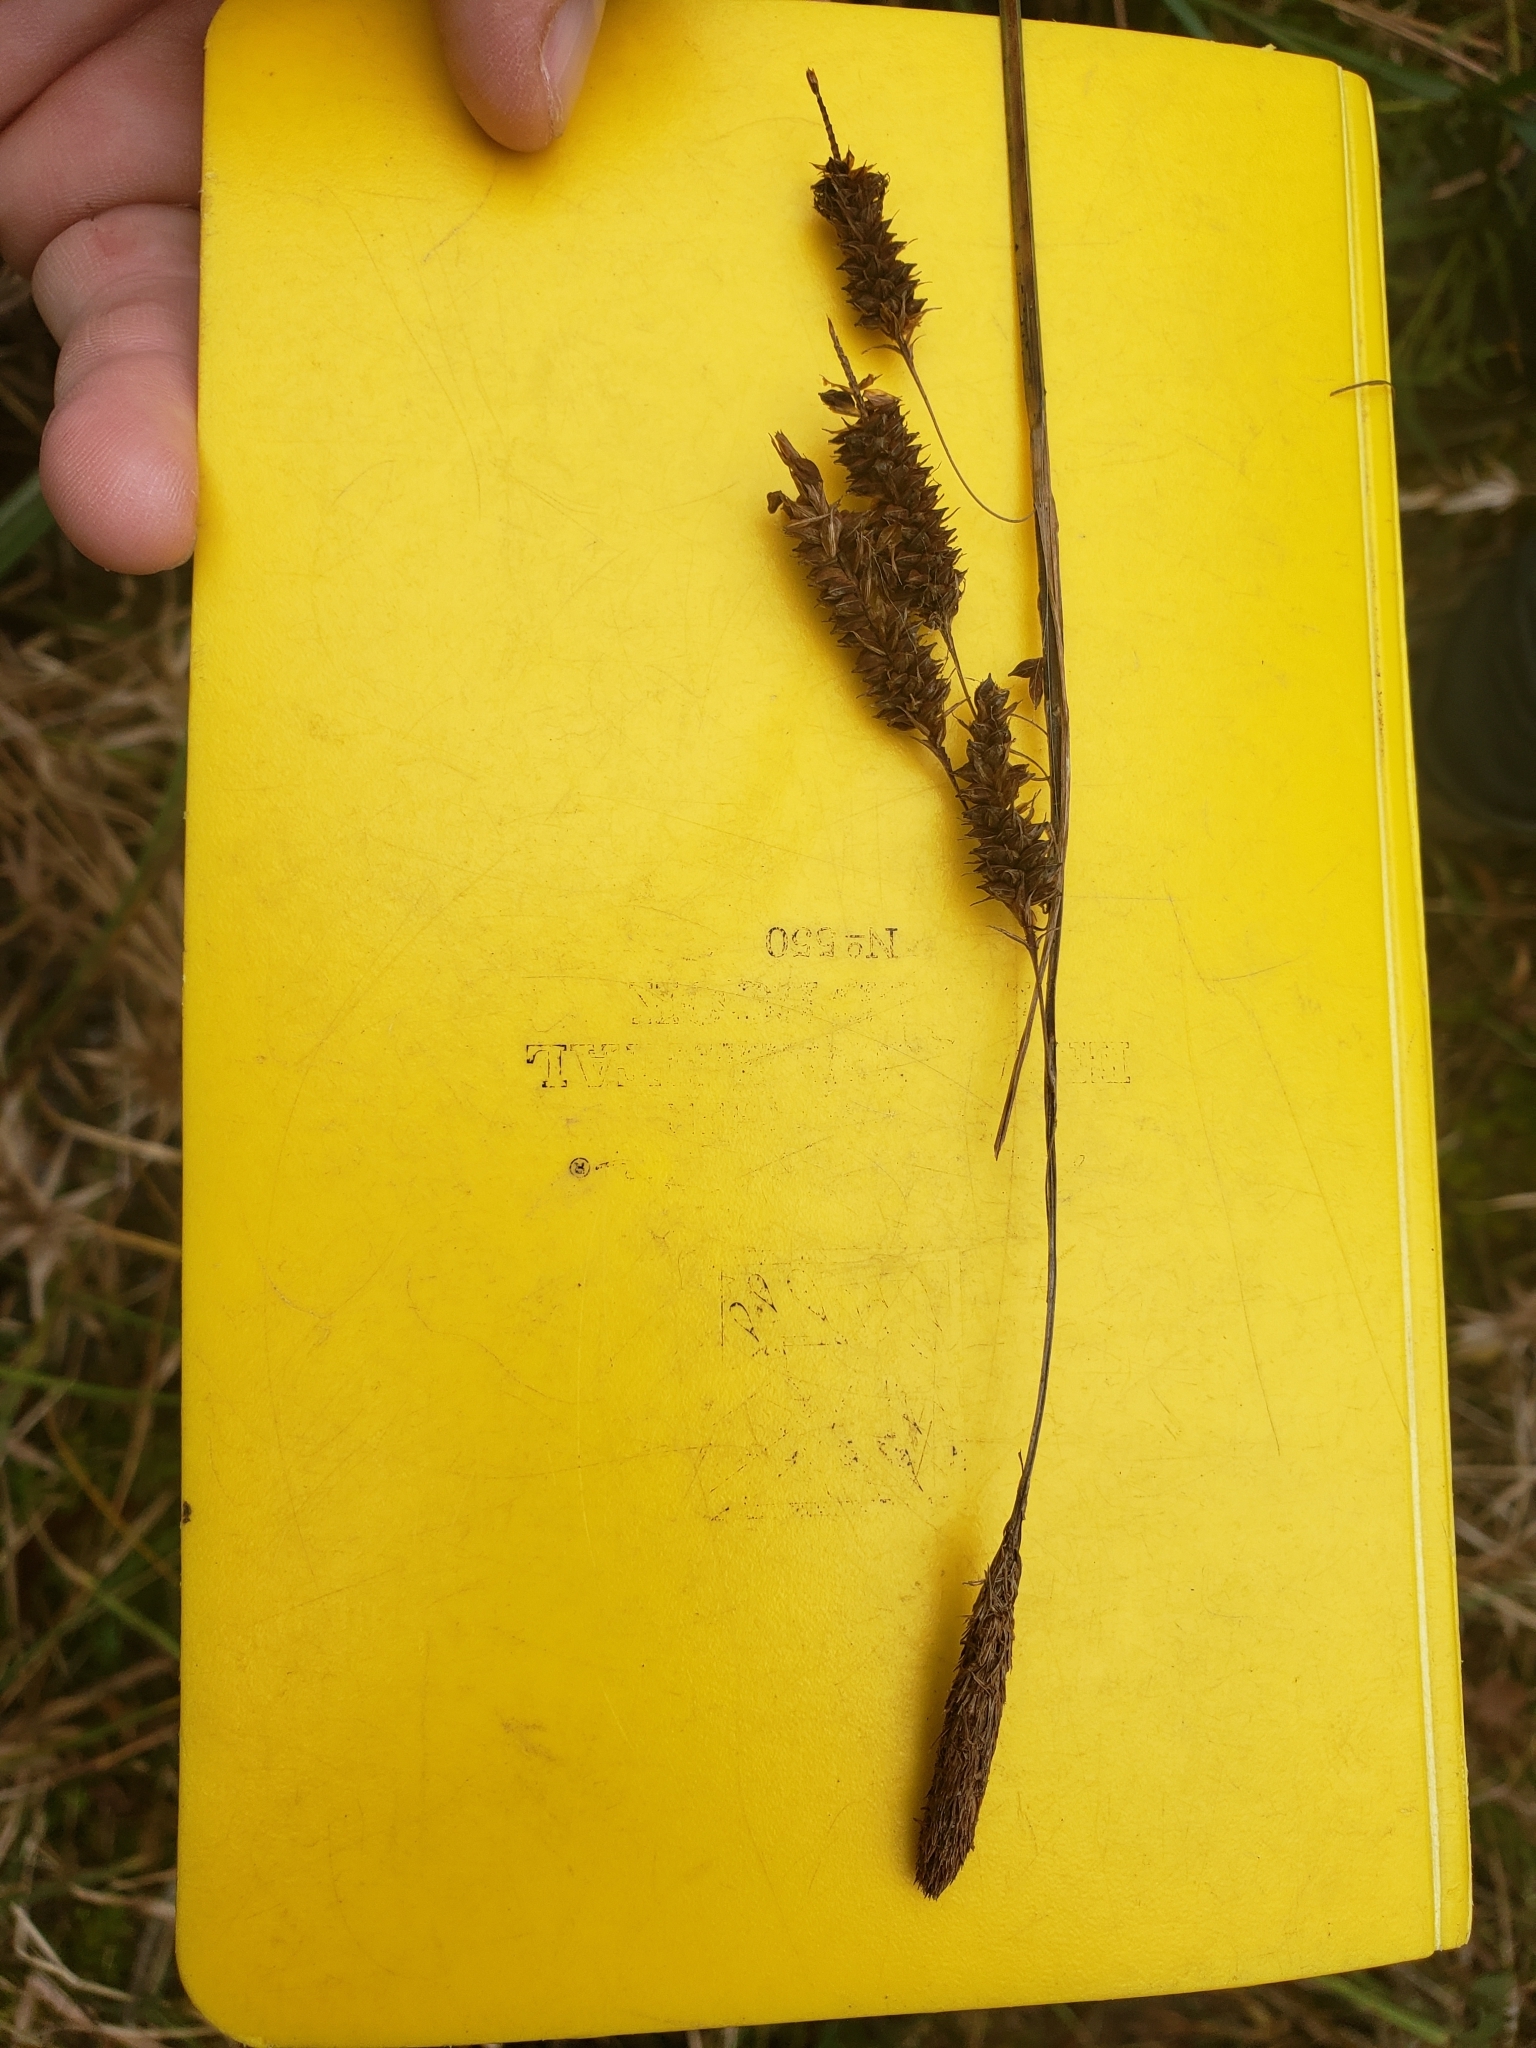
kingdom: Plantae
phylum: Tracheophyta
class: Liliopsida
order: Poales
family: Cyperaceae
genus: Carex
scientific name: Carex glaucescens
